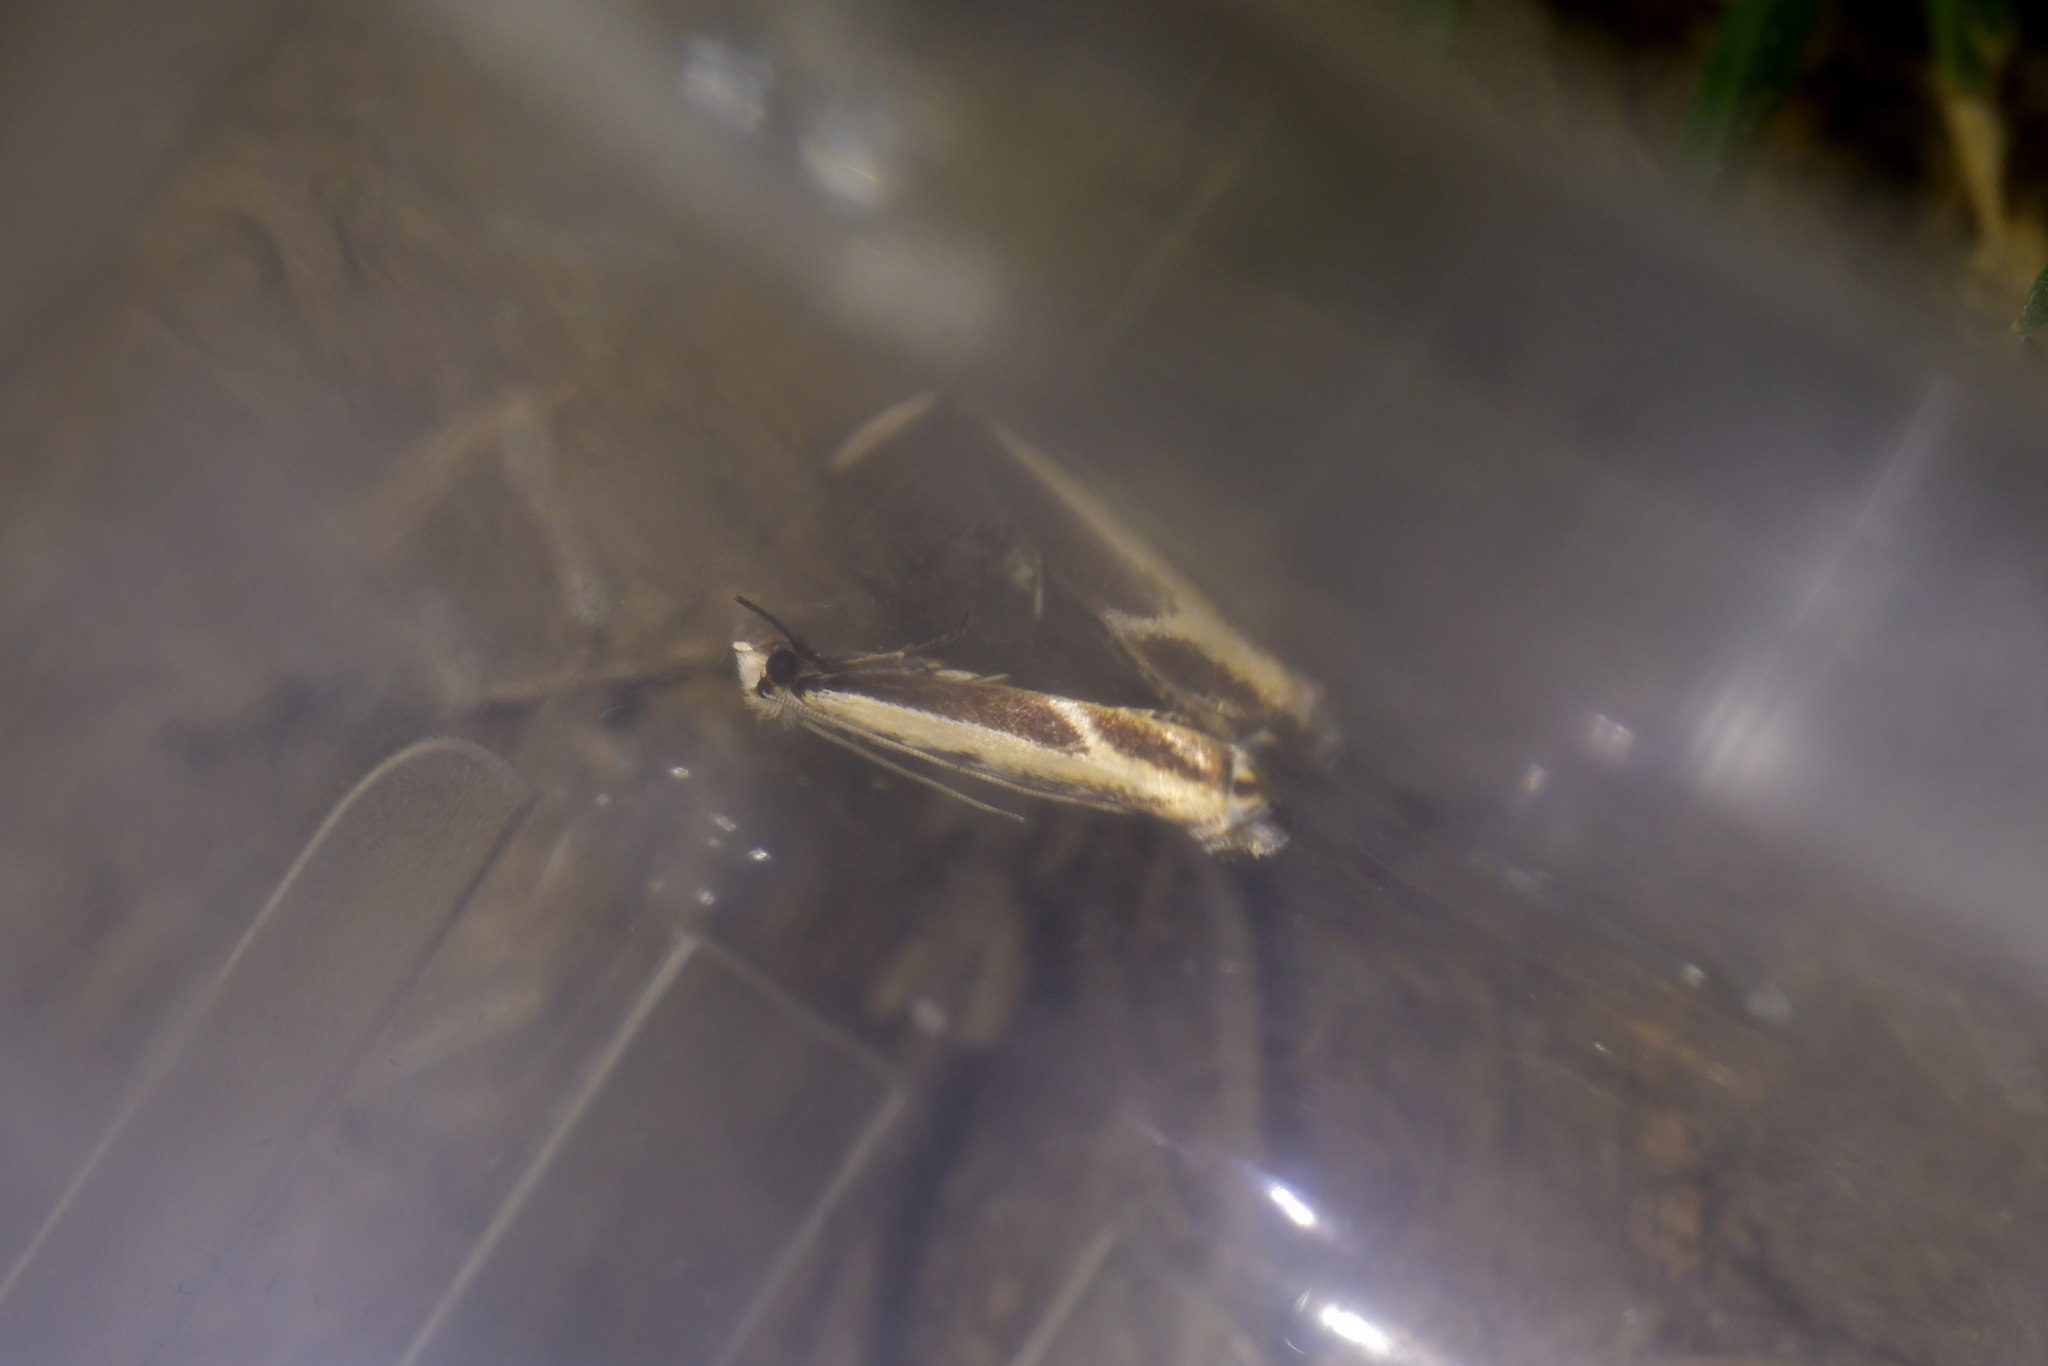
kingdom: Animalia
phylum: Arthropoda
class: Insecta
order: Lepidoptera
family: Tineidae
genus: Erechthias
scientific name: Erechthias terminella
